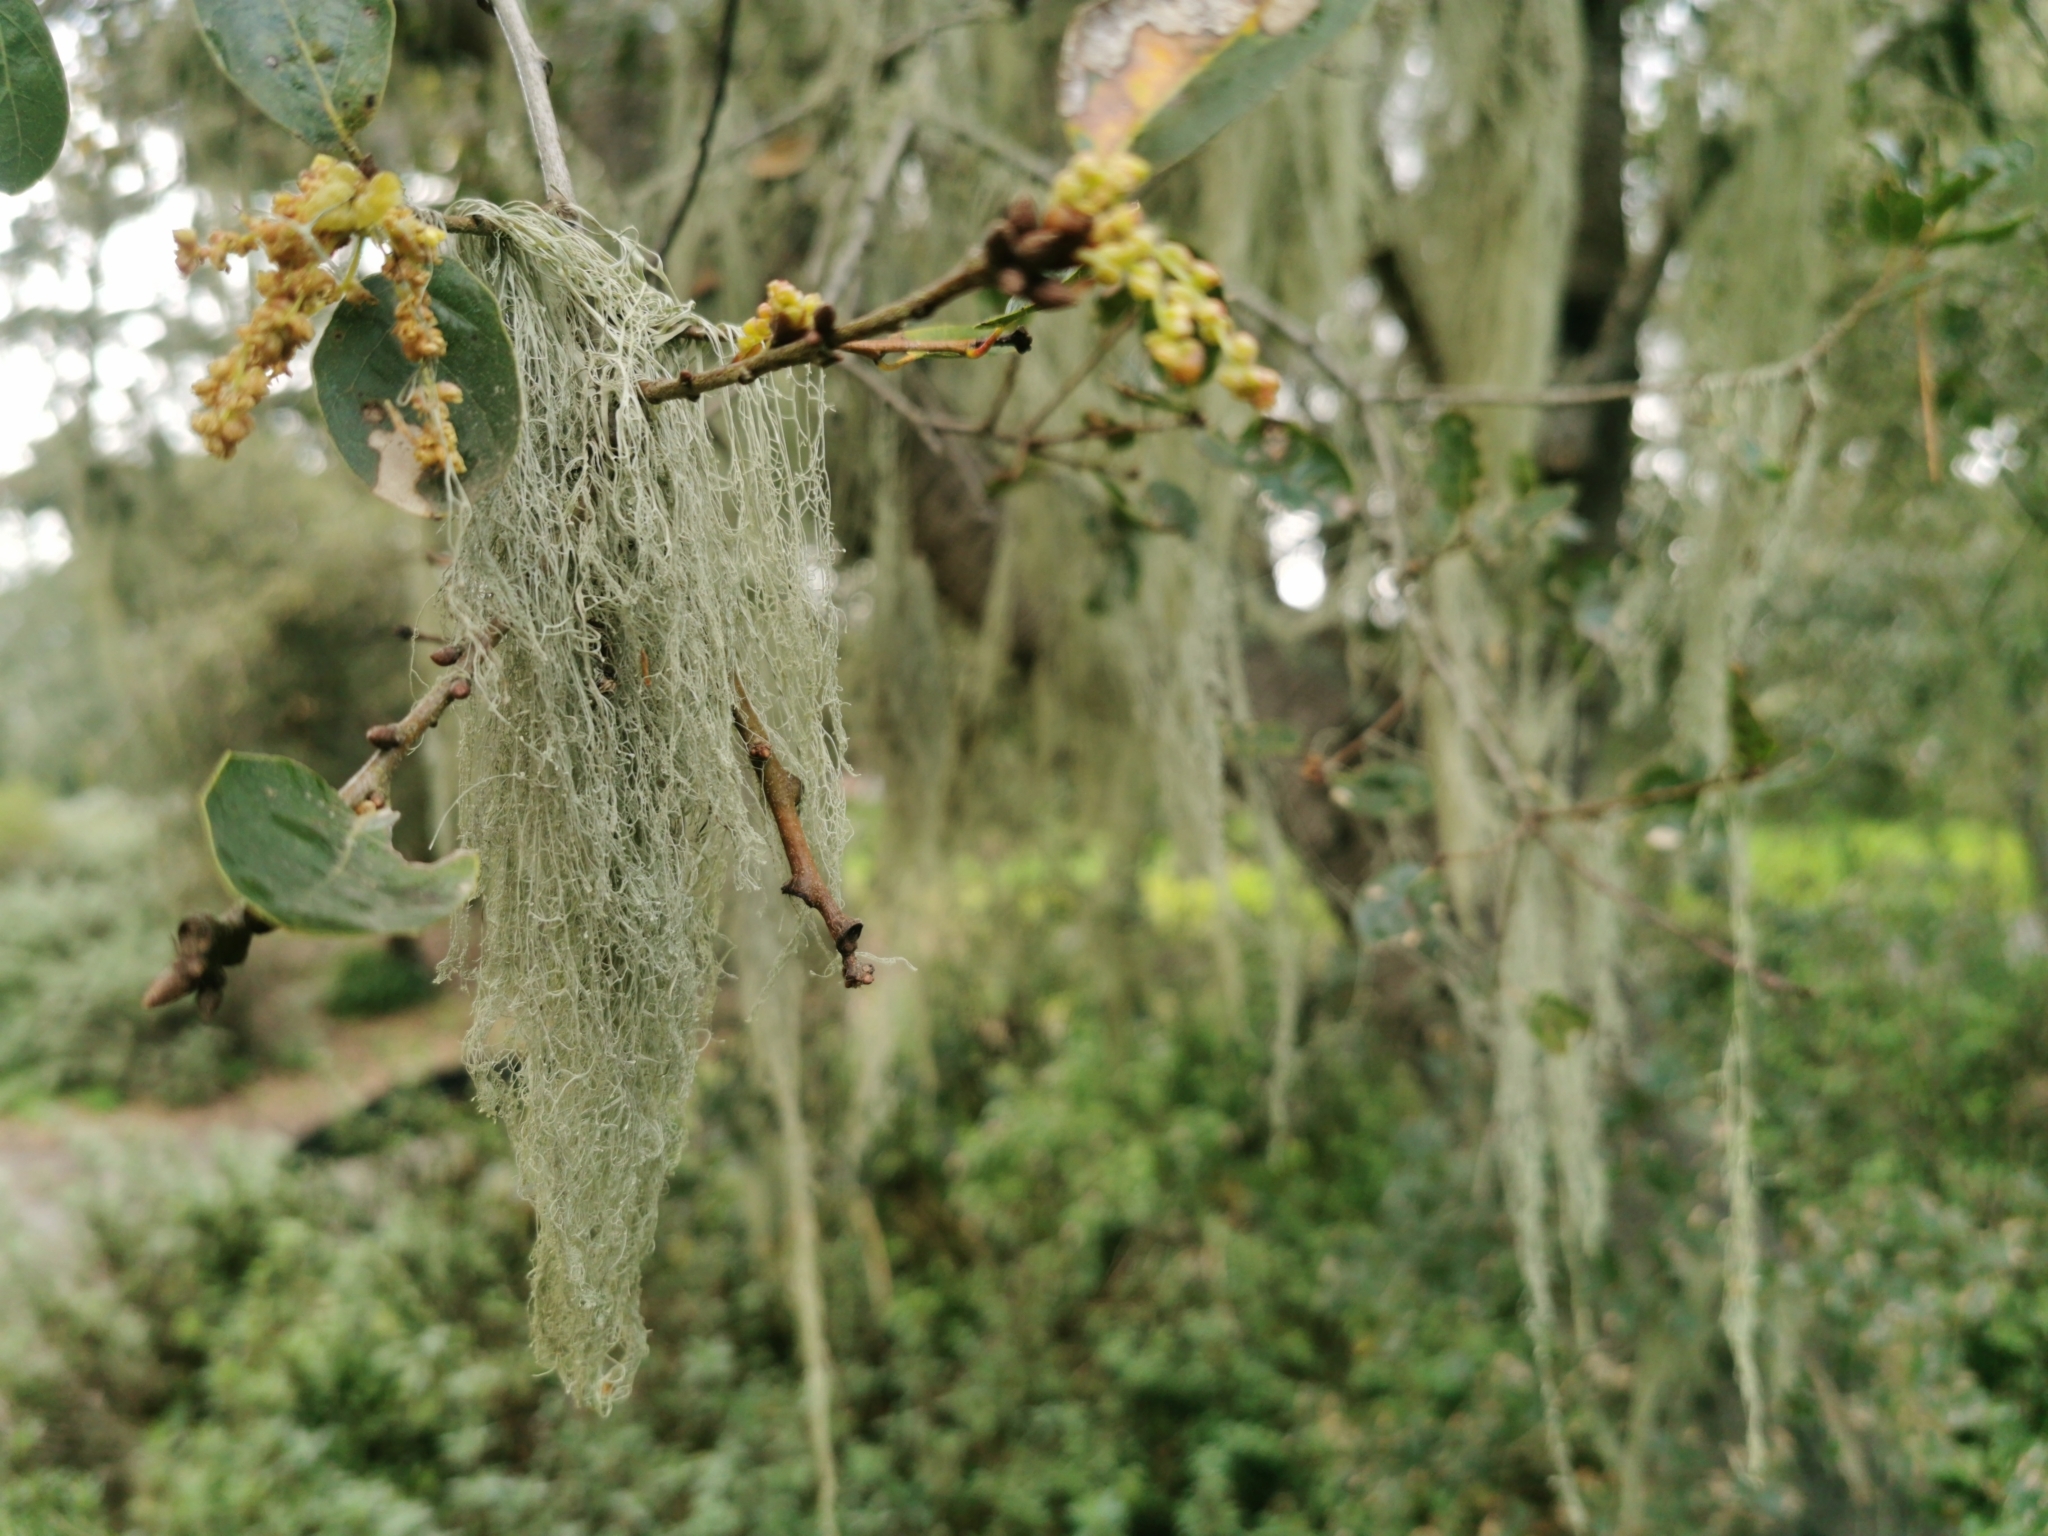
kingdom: Fungi
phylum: Ascomycota
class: Lecanoromycetes
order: Lecanorales
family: Ramalinaceae
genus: Ramalina
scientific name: Ramalina menziesii
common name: Lace lichen
